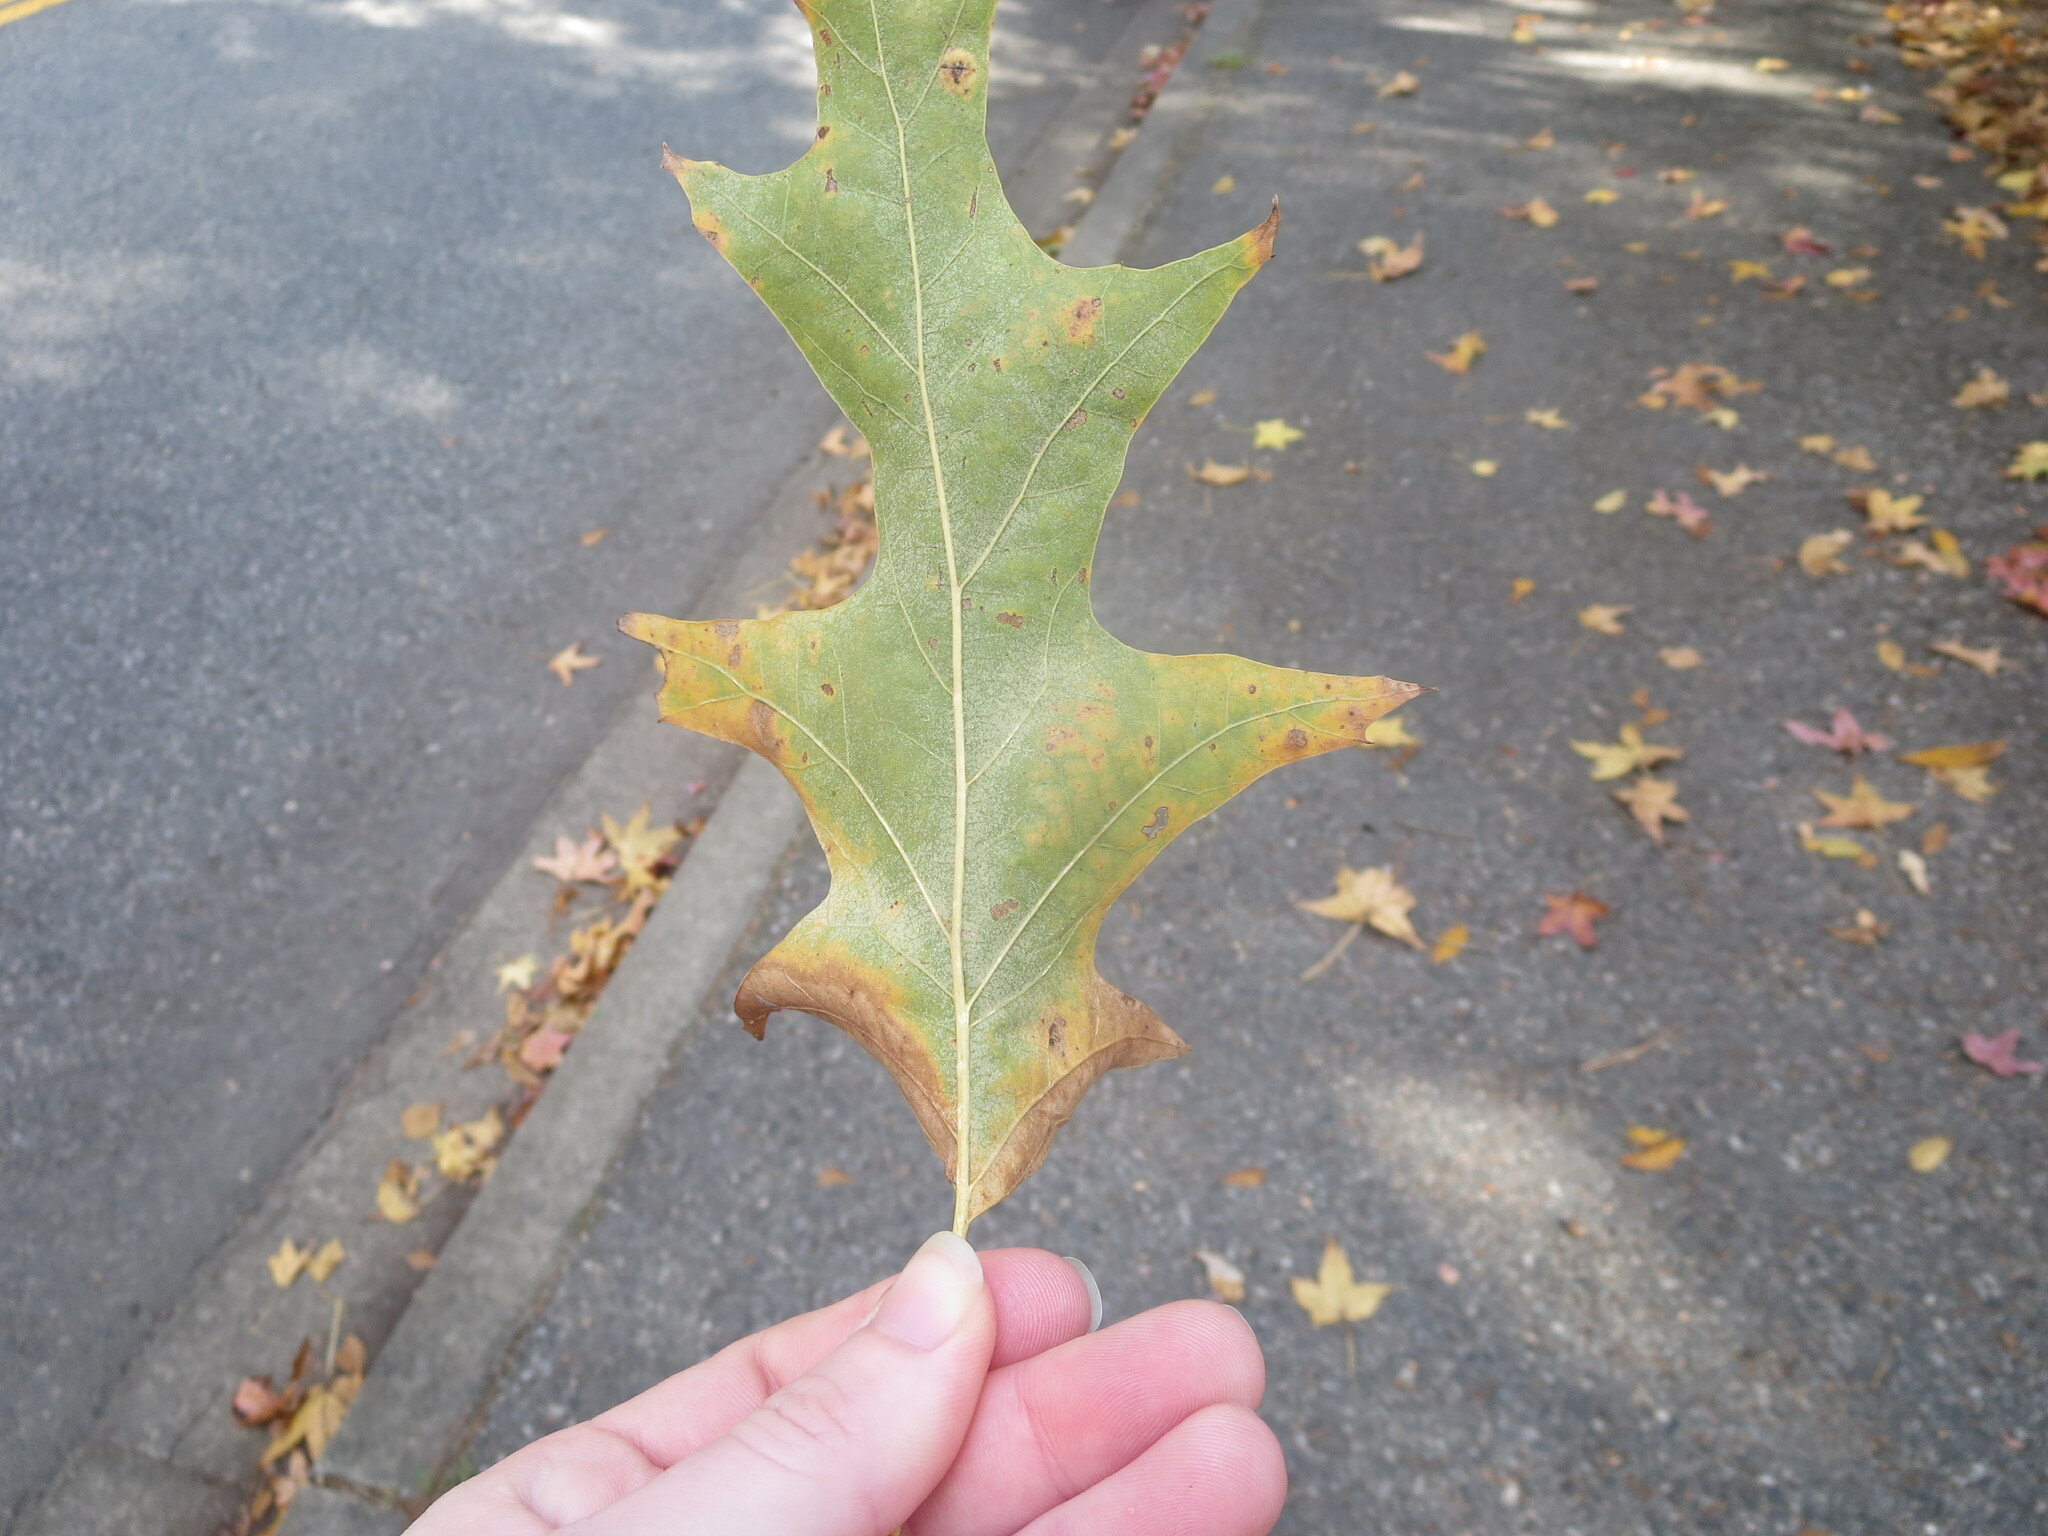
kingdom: Plantae
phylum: Tracheophyta
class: Magnoliopsida
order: Fagales
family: Fagaceae
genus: Quercus
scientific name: Quercus pagoda
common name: Cherrybark oak
